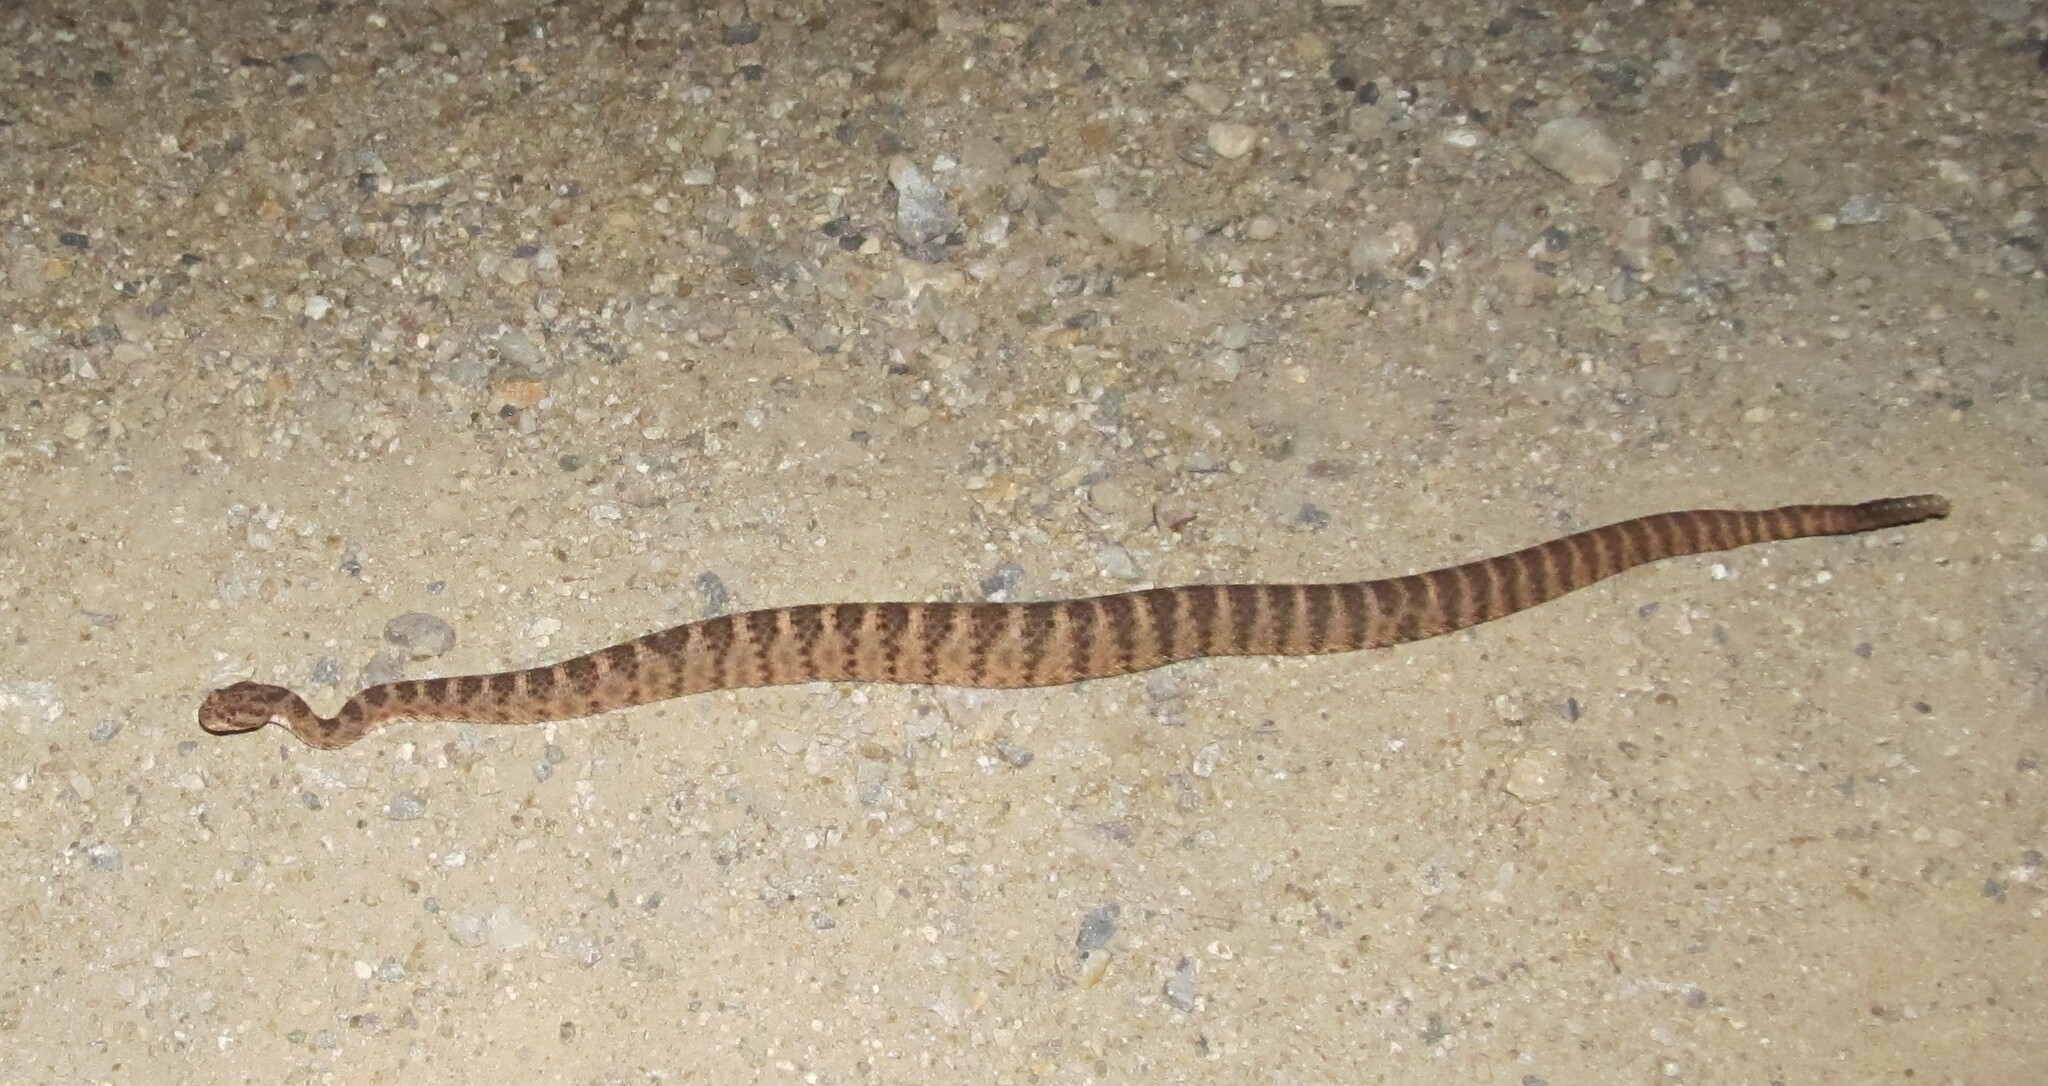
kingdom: Animalia
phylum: Chordata
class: Squamata
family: Viperidae
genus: Crotalus
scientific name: Crotalus tigris
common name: Tiger rattlesnake
